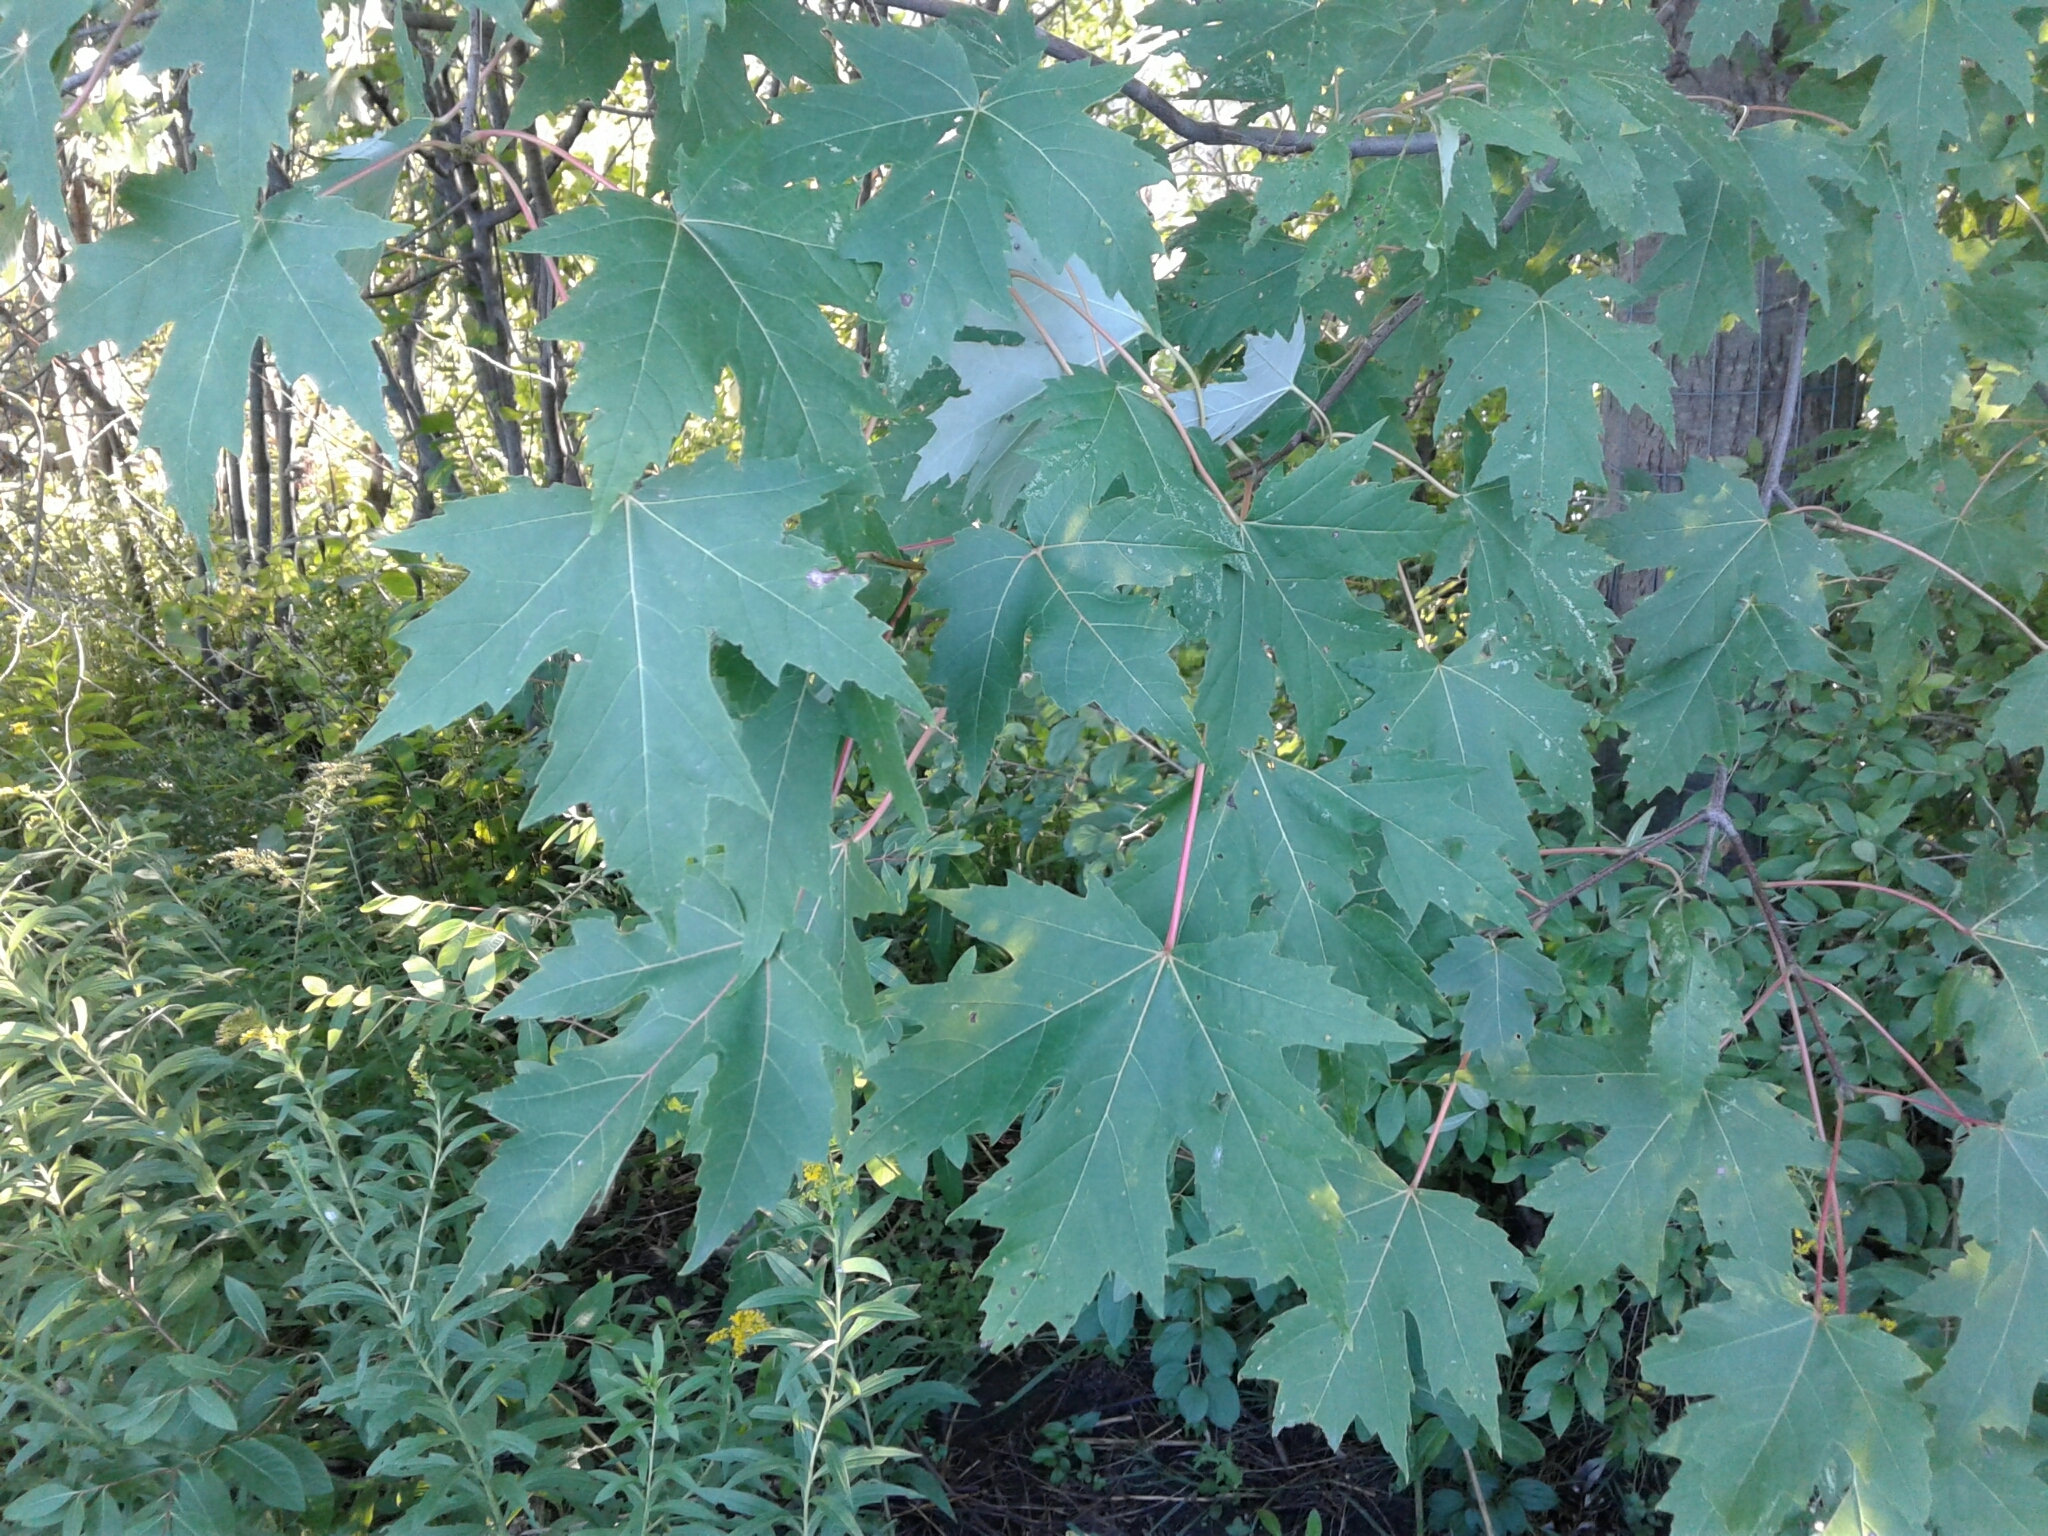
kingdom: Plantae
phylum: Tracheophyta
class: Magnoliopsida
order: Sapindales
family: Sapindaceae
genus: Acer
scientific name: Acer saccharinum
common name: Silver maple
